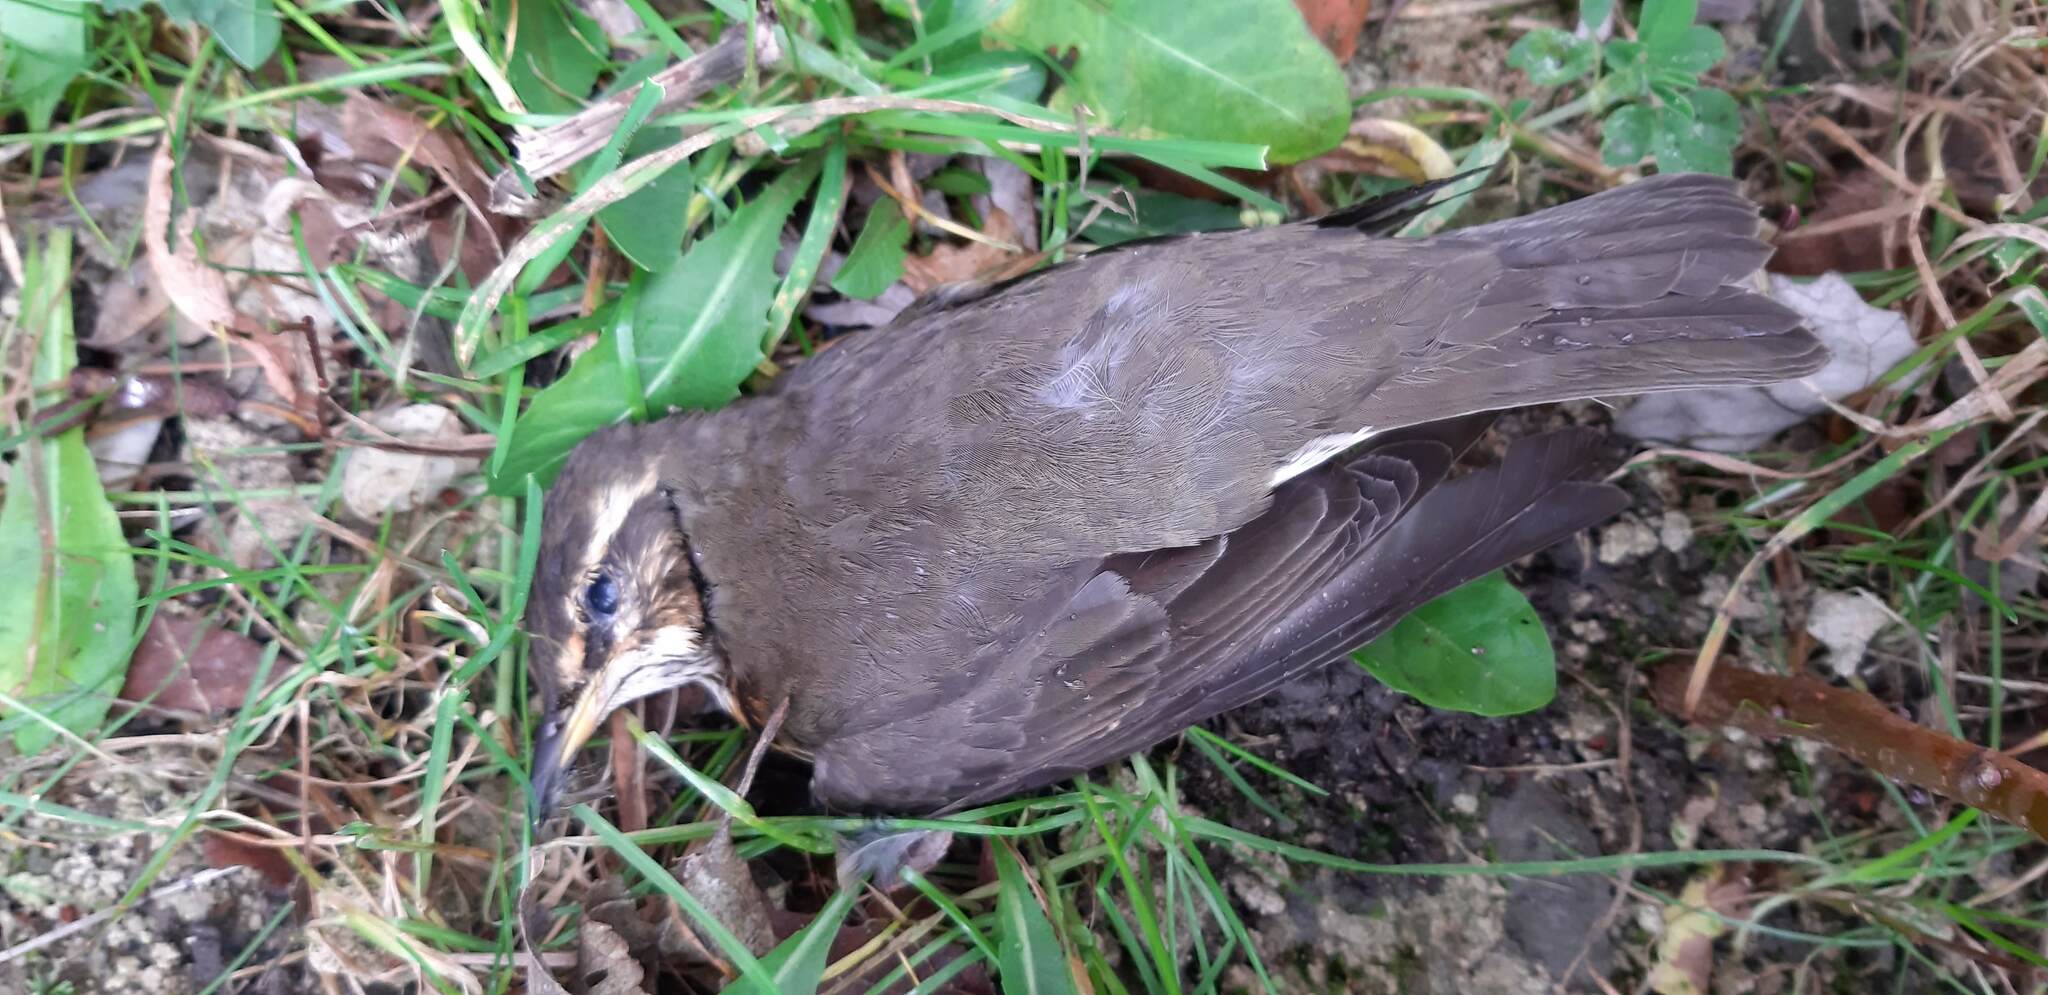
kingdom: Animalia
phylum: Chordata
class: Aves
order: Passeriformes
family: Turdidae
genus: Turdus
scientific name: Turdus iliacus
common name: Redwing
